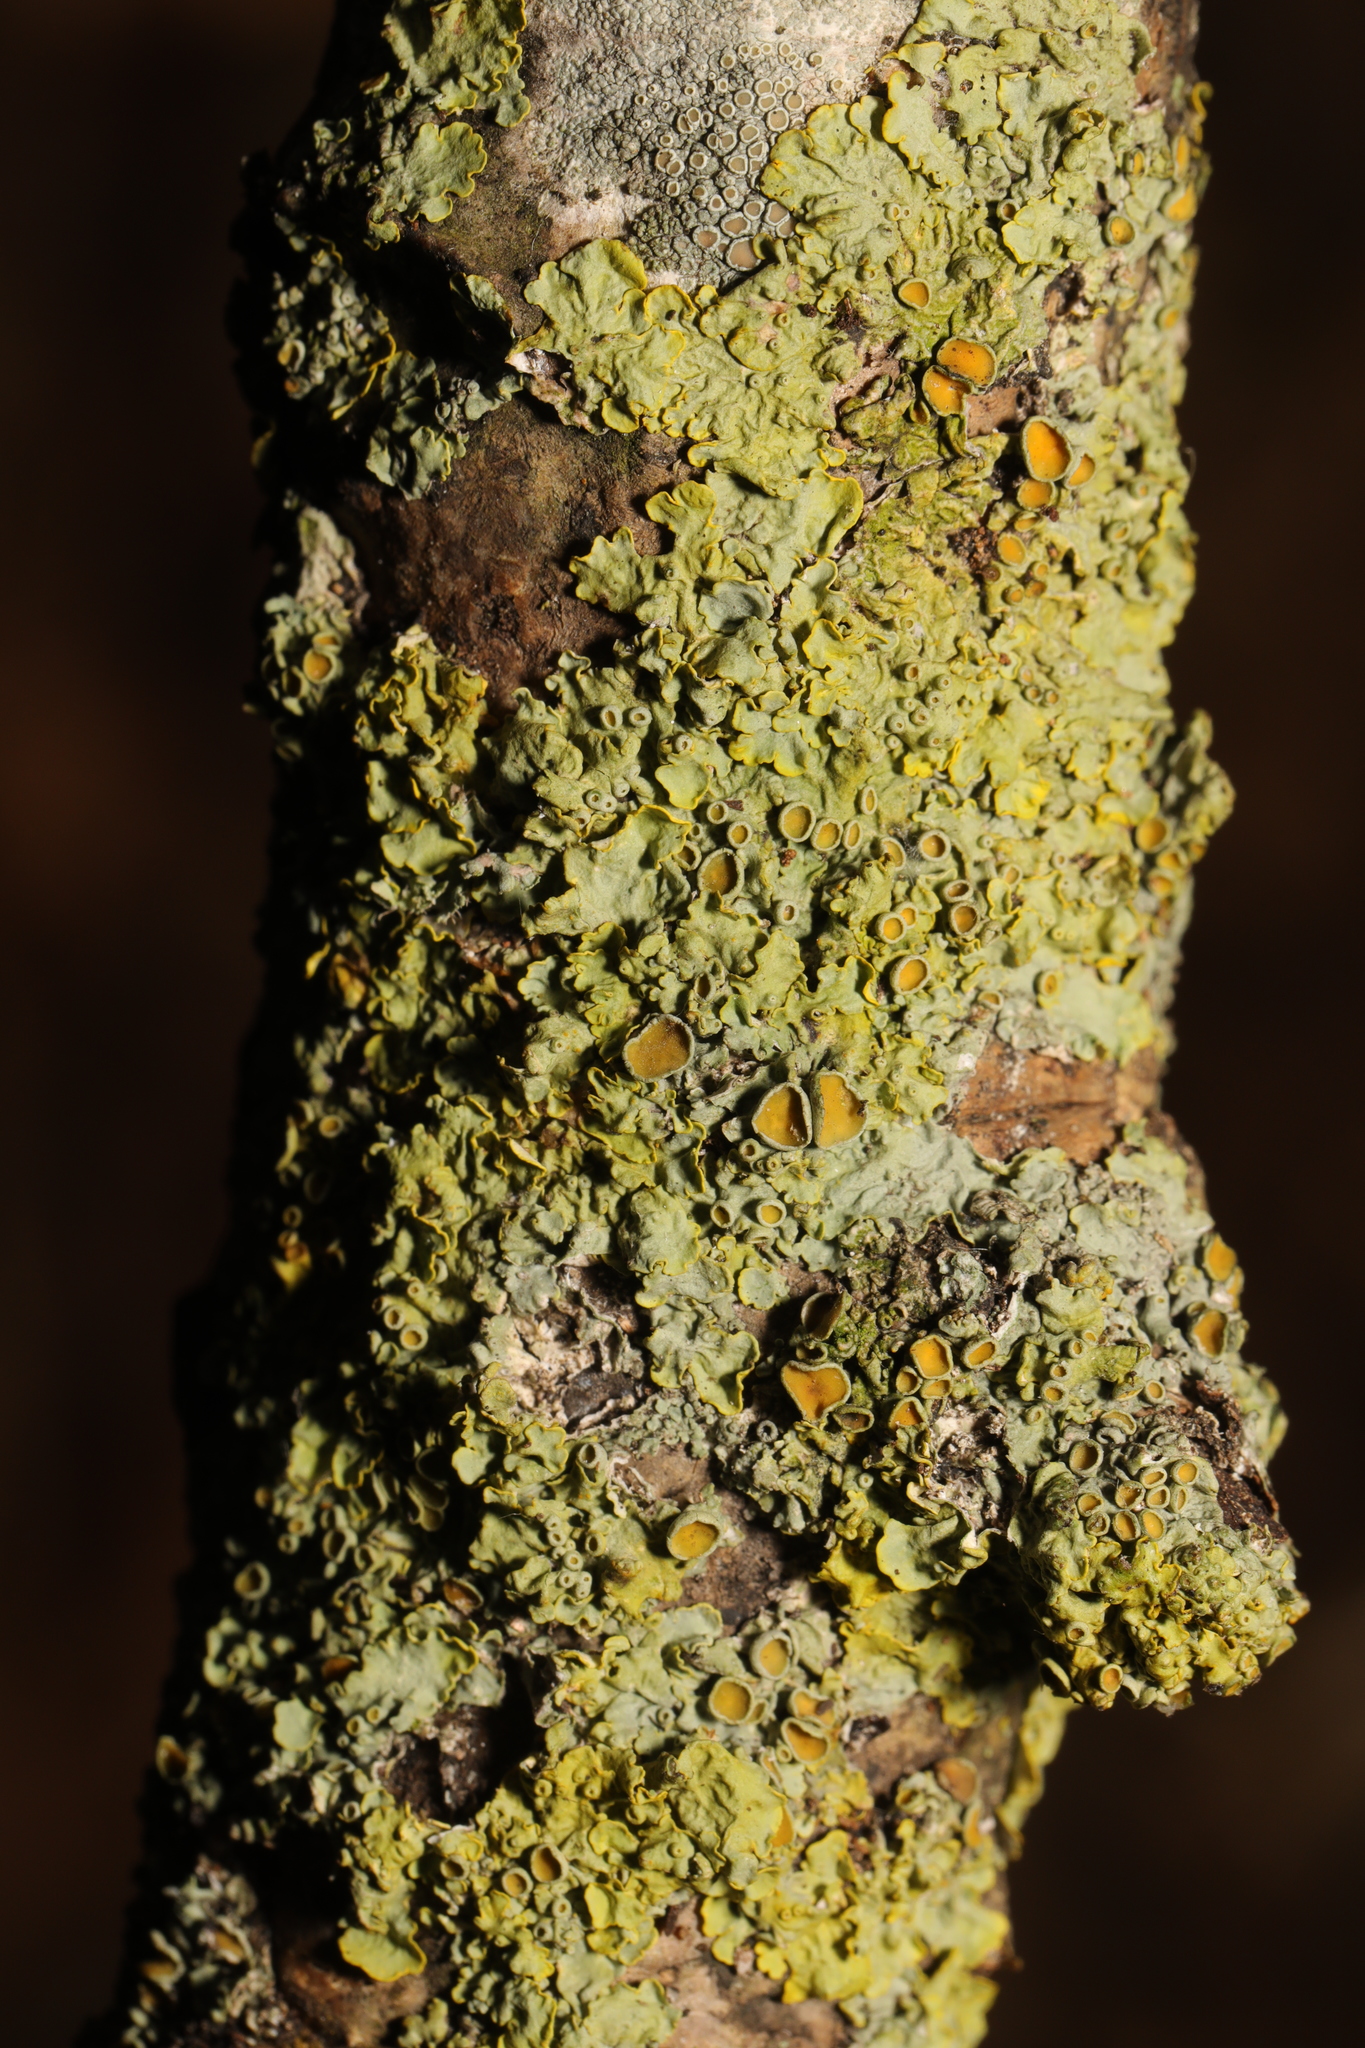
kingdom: Fungi
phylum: Ascomycota
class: Lecanoromycetes
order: Teloschistales
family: Teloschistaceae
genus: Xanthoria
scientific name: Xanthoria parietina
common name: Common orange lichen
